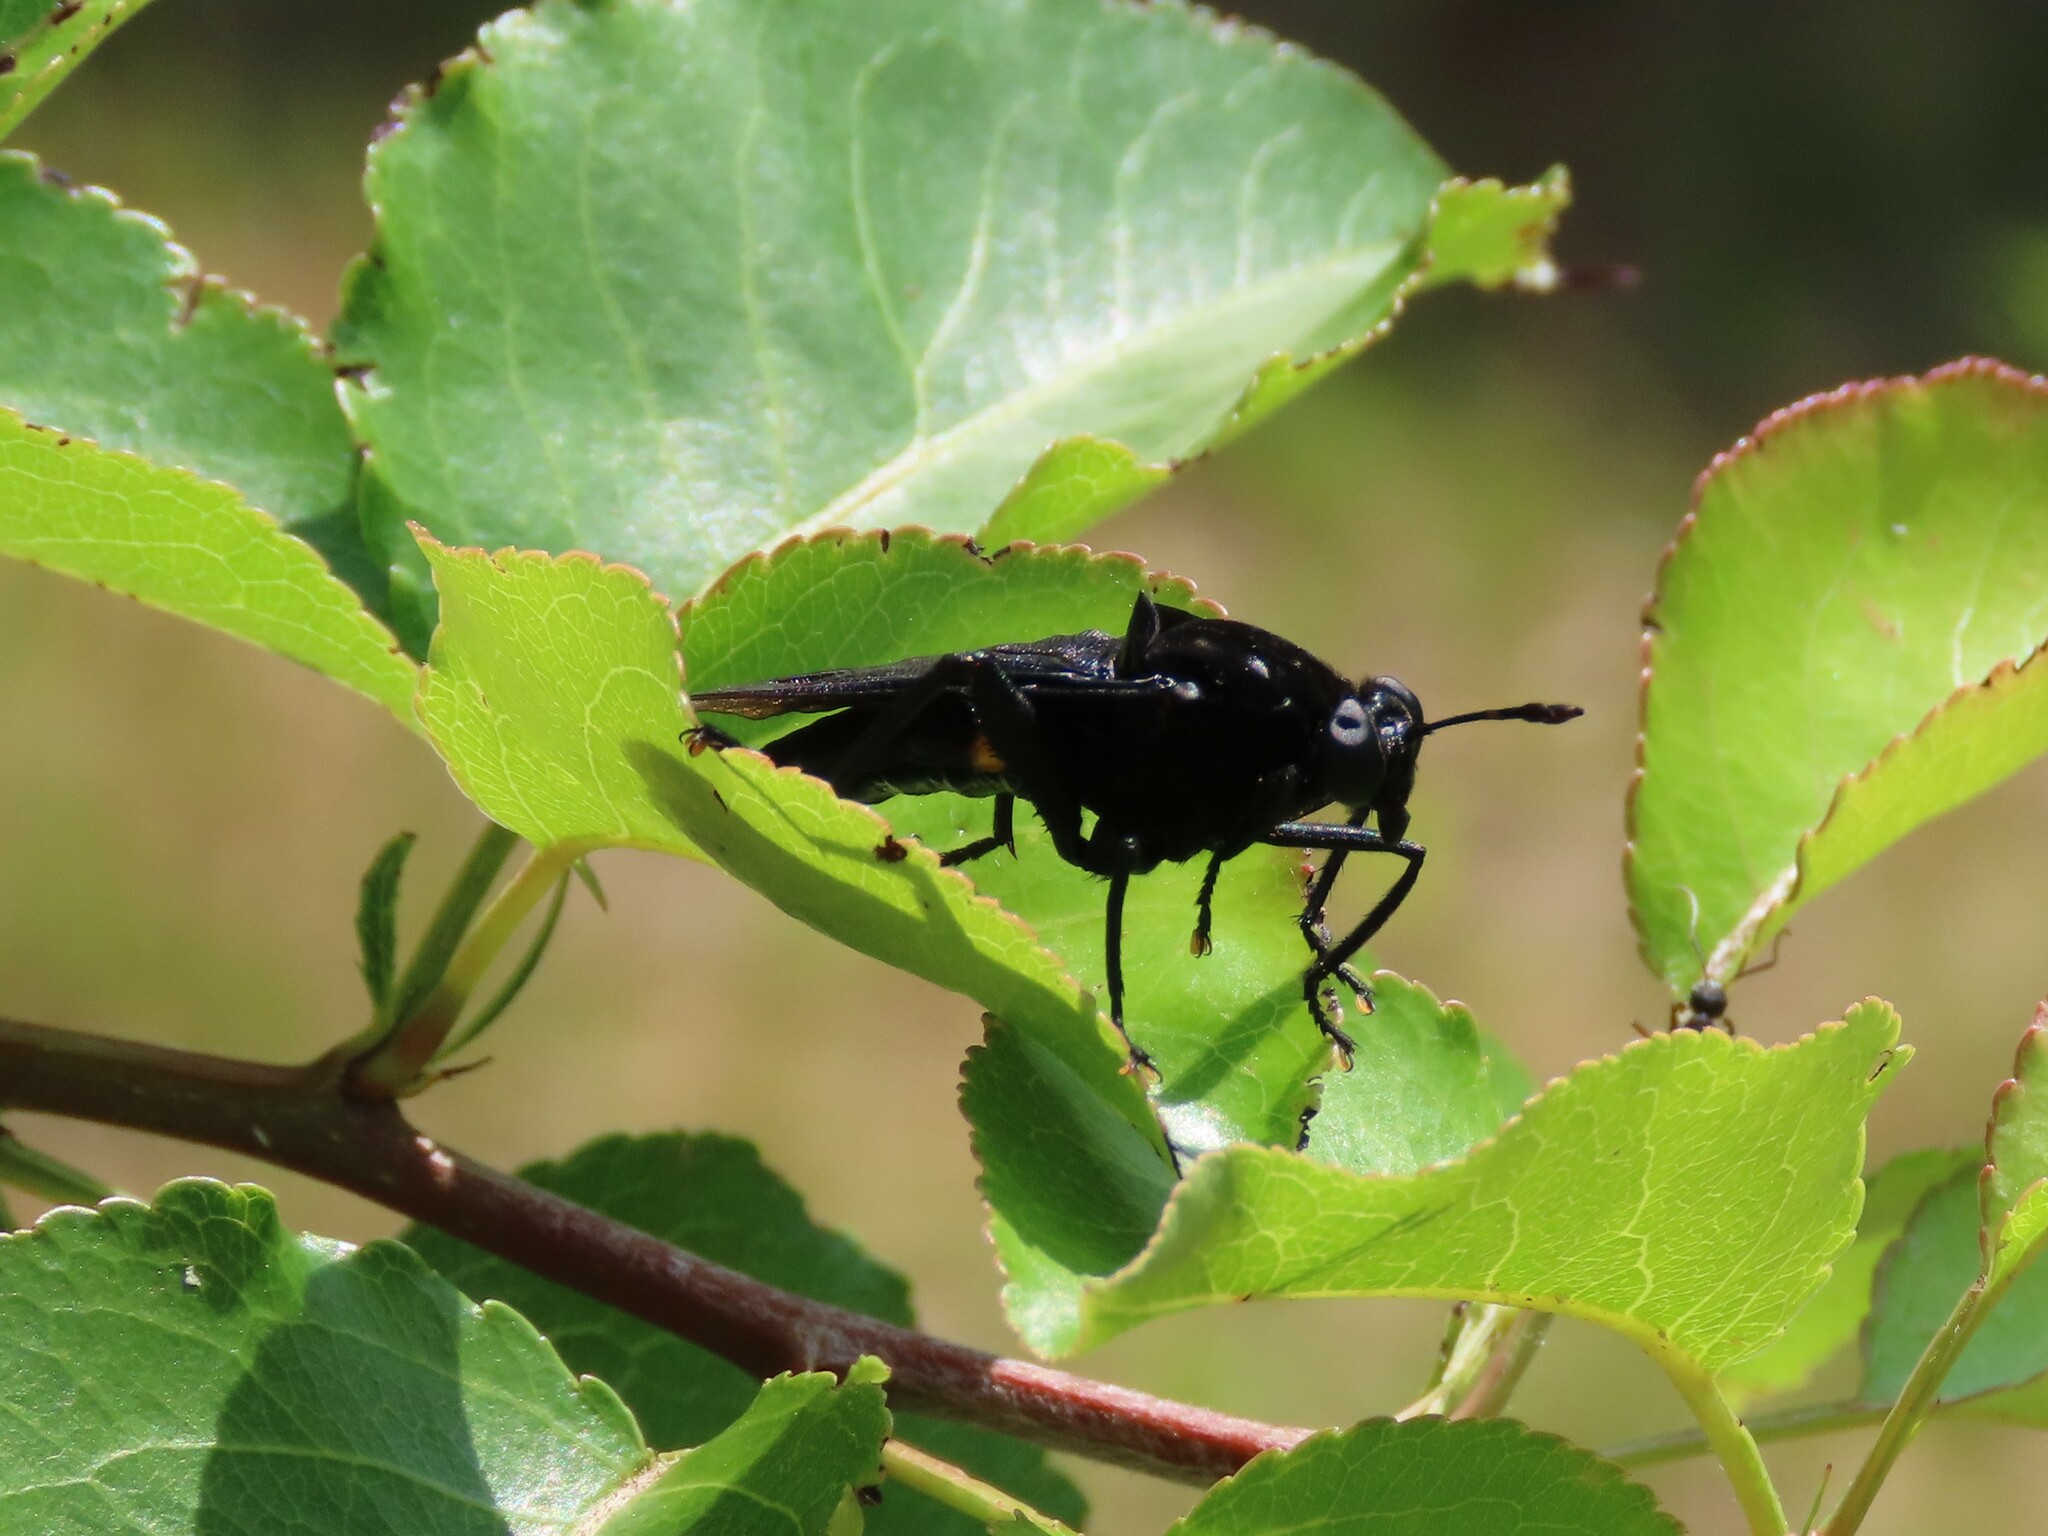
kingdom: Animalia
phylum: Arthropoda
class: Insecta
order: Diptera
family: Mydidae
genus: Mydas
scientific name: Mydas clavatus
